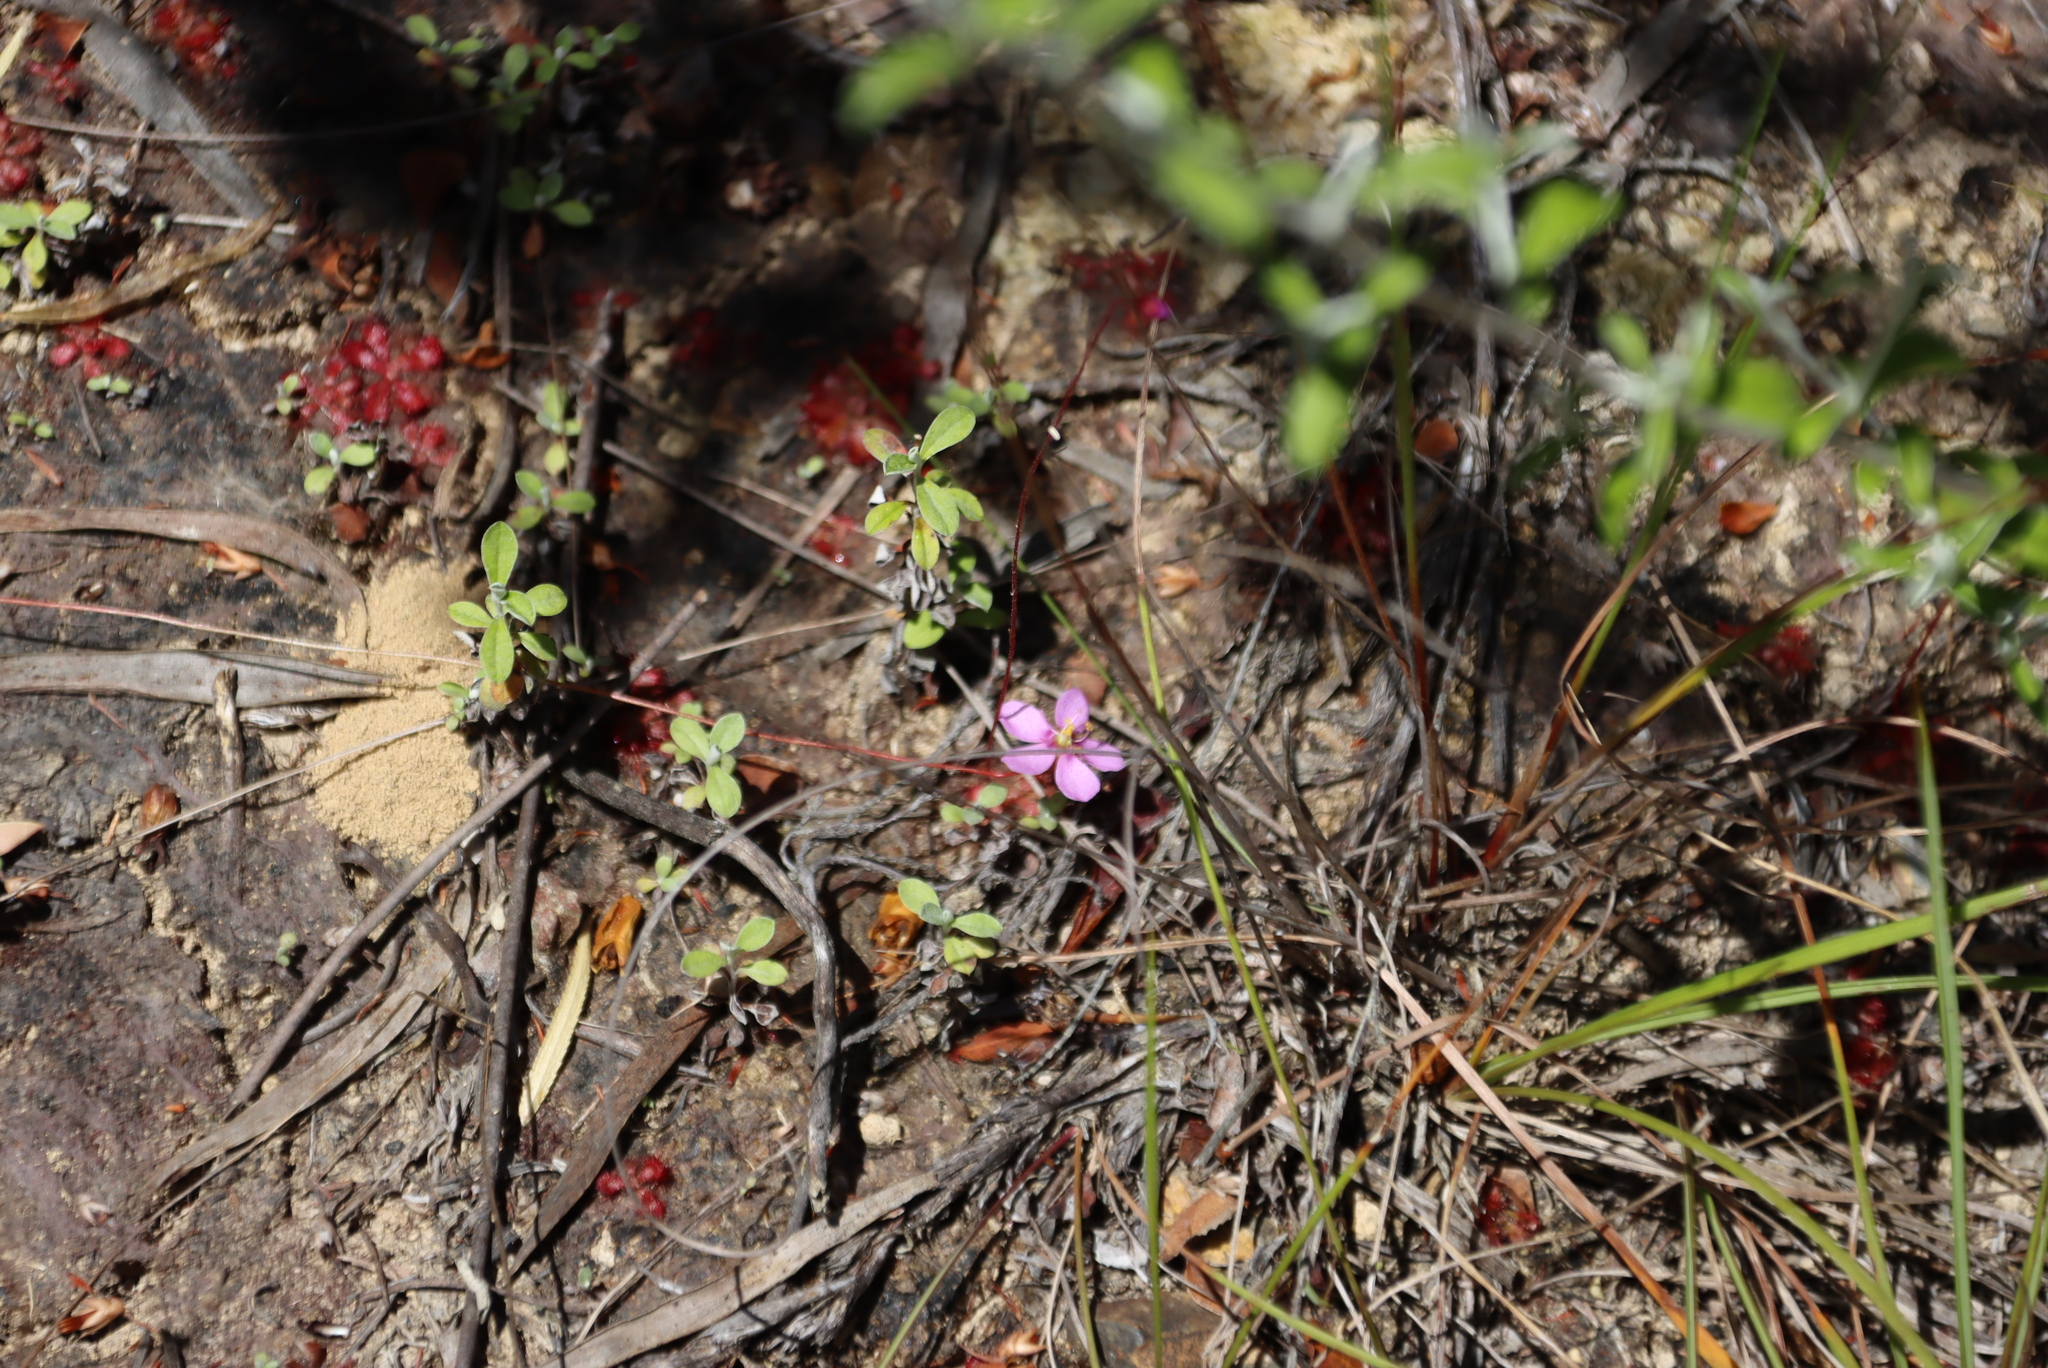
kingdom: Plantae
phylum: Tracheophyta
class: Magnoliopsida
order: Caryophyllales
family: Droseraceae
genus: Drosera
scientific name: Drosera aliciae
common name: Alice sundew
